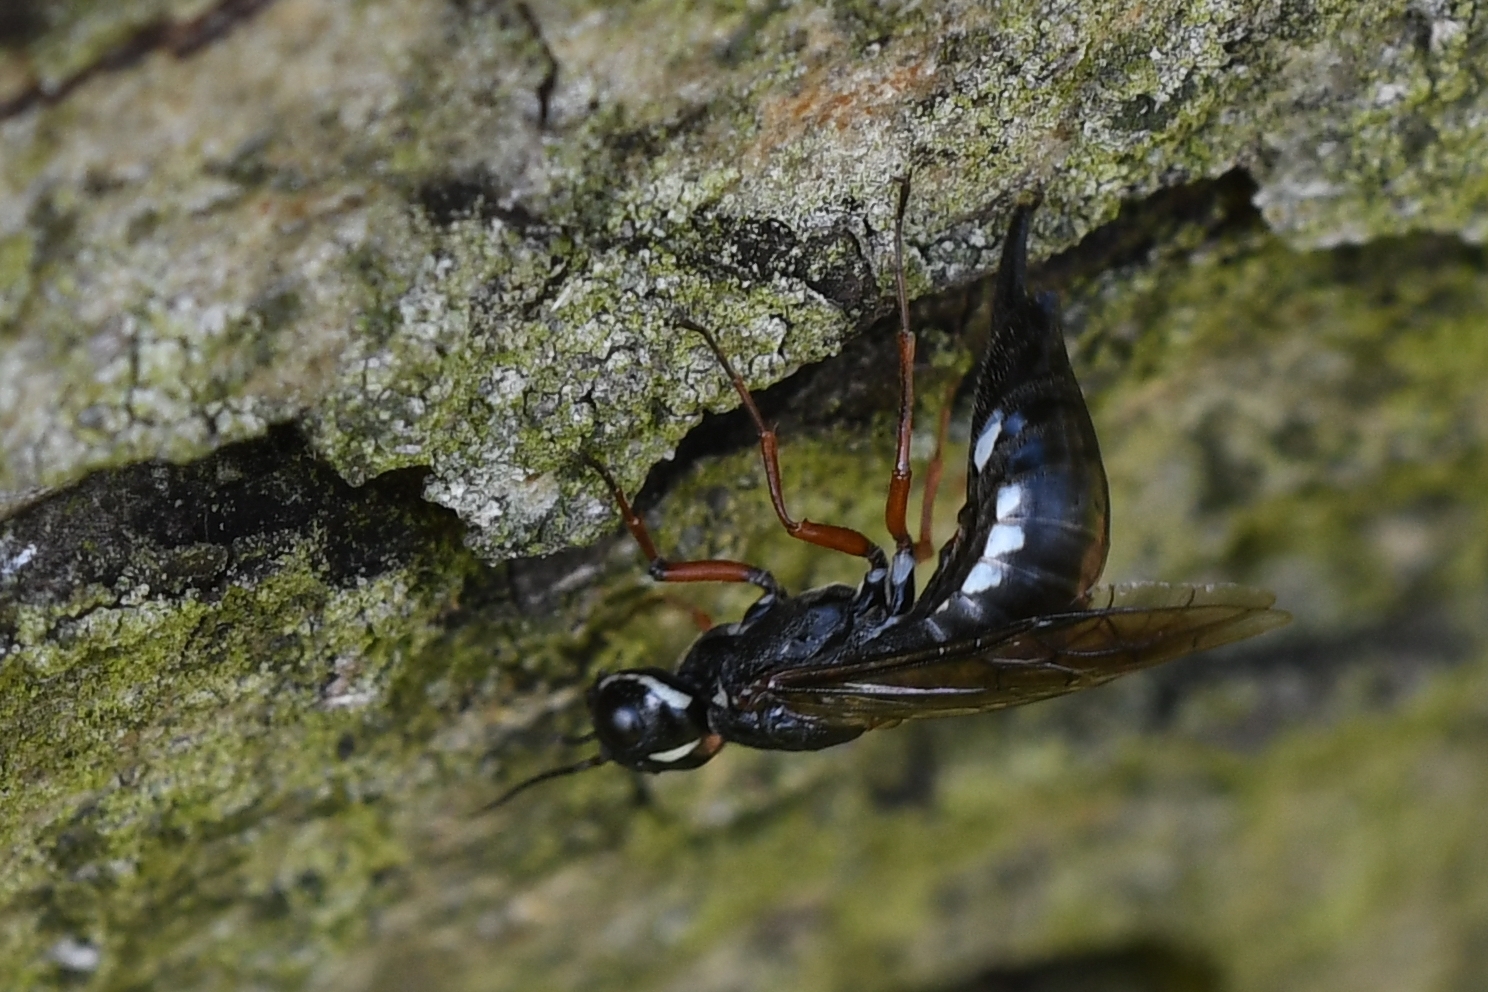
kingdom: Animalia
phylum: Arthropoda
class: Insecta
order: Hymenoptera
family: Xiphydriidae
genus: Xiphydria
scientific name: Xiphydria camelus
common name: Alder wood-wasp
